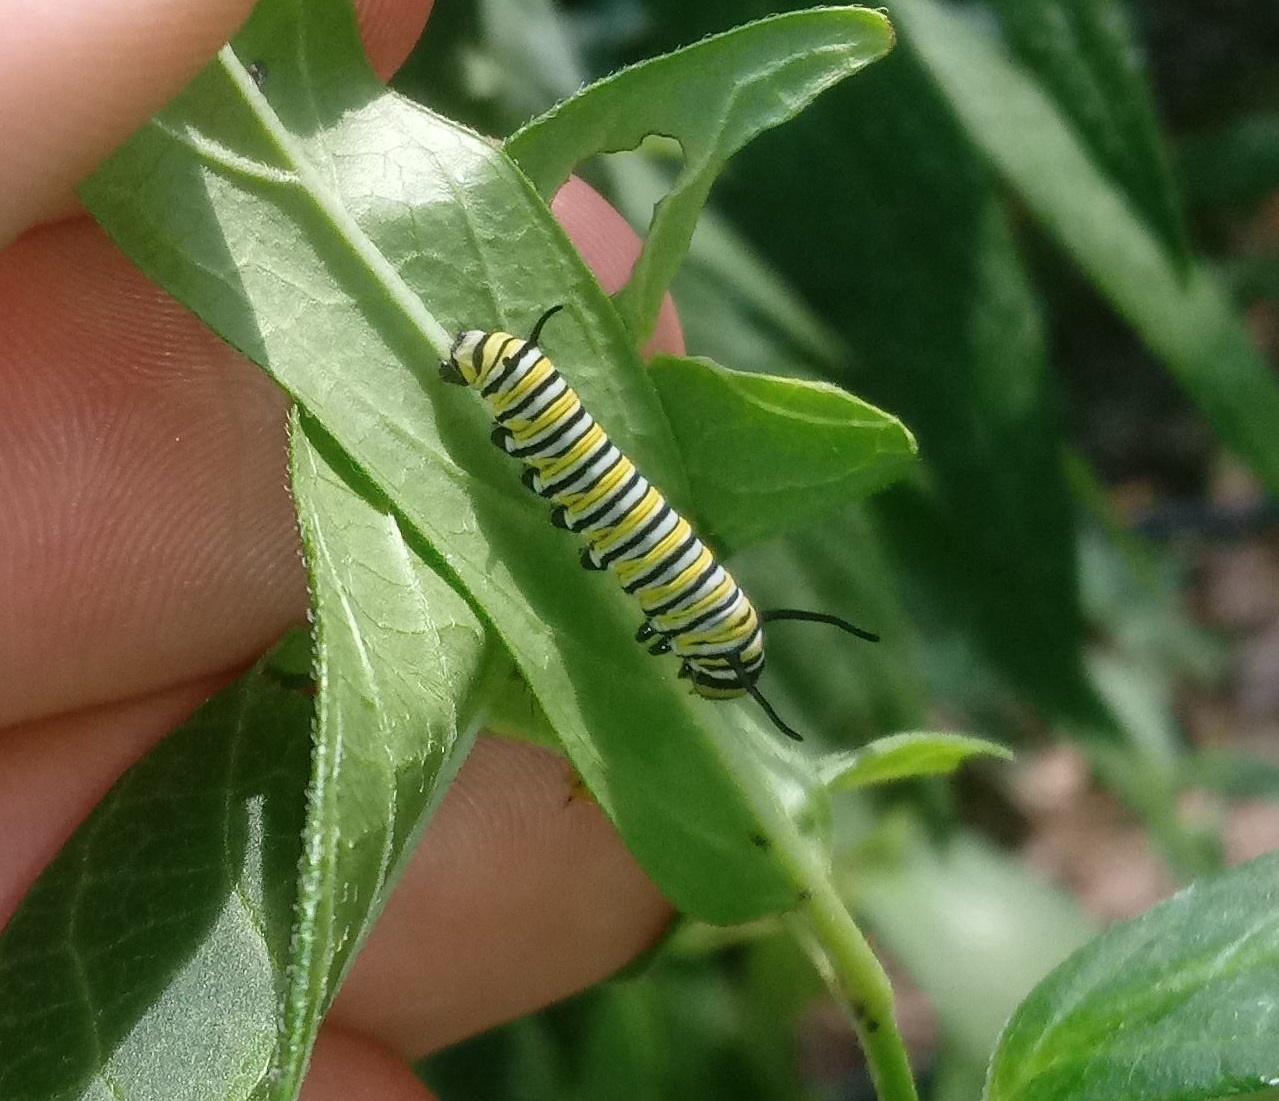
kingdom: Animalia
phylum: Arthropoda
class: Insecta
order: Lepidoptera
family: Nymphalidae
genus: Danaus
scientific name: Danaus plexippus
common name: Monarch
